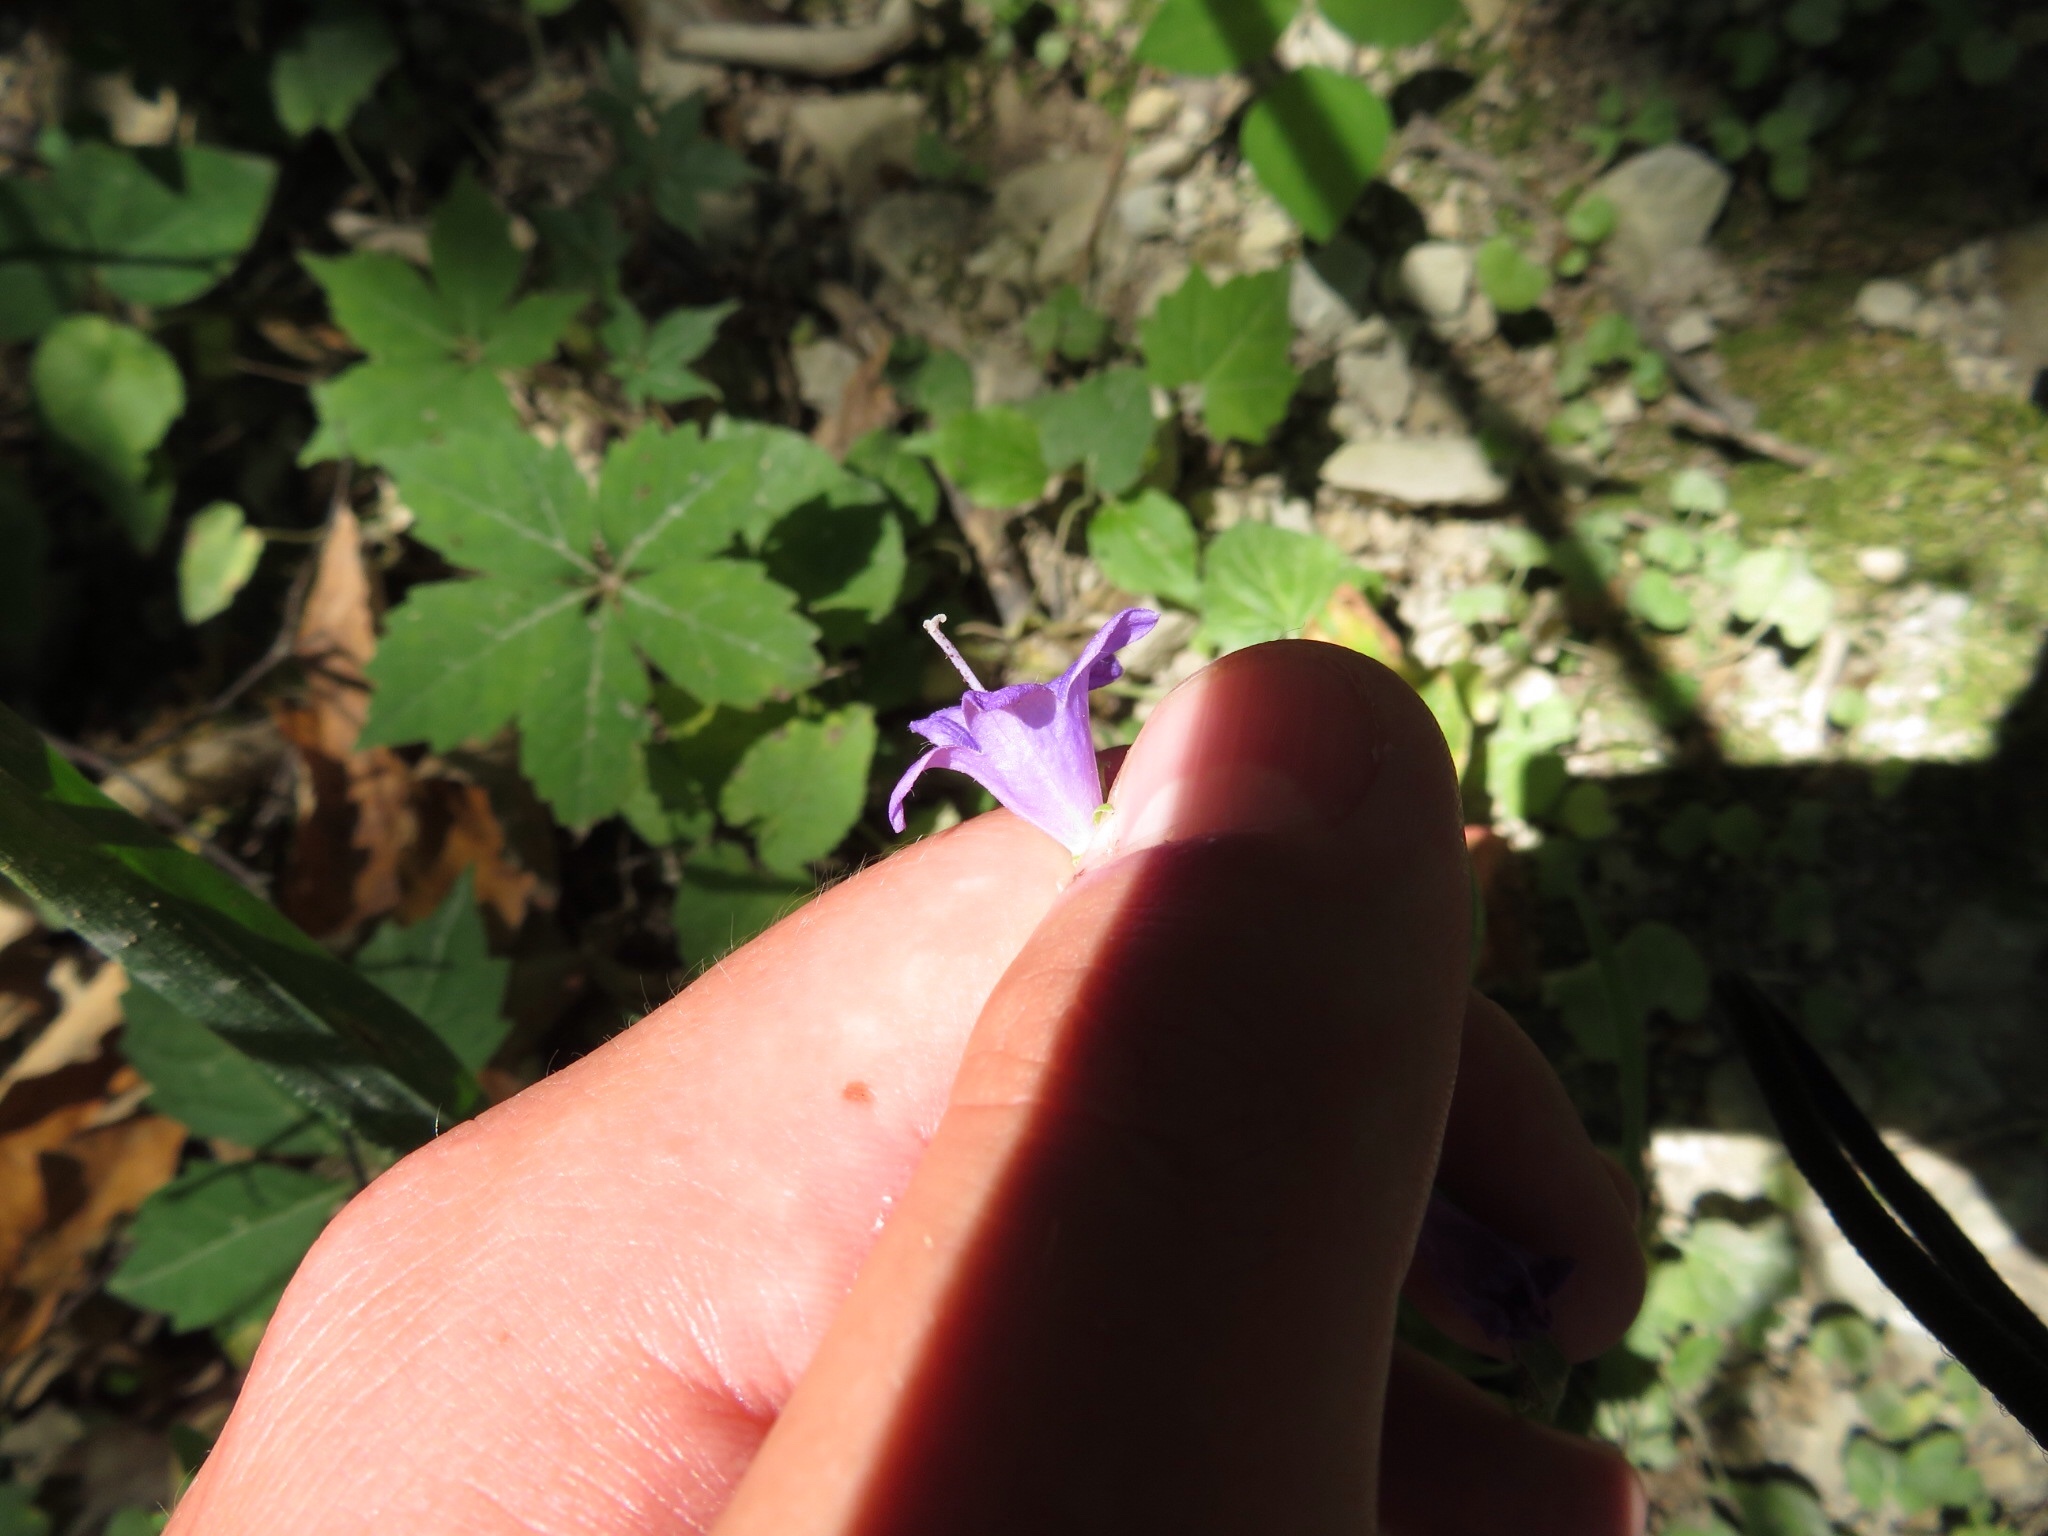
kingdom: Plantae
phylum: Tracheophyta
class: Magnoliopsida
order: Asterales
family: Campanulaceae
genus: Campanula
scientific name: Campanula rapunculoides
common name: Creeping bellflower
